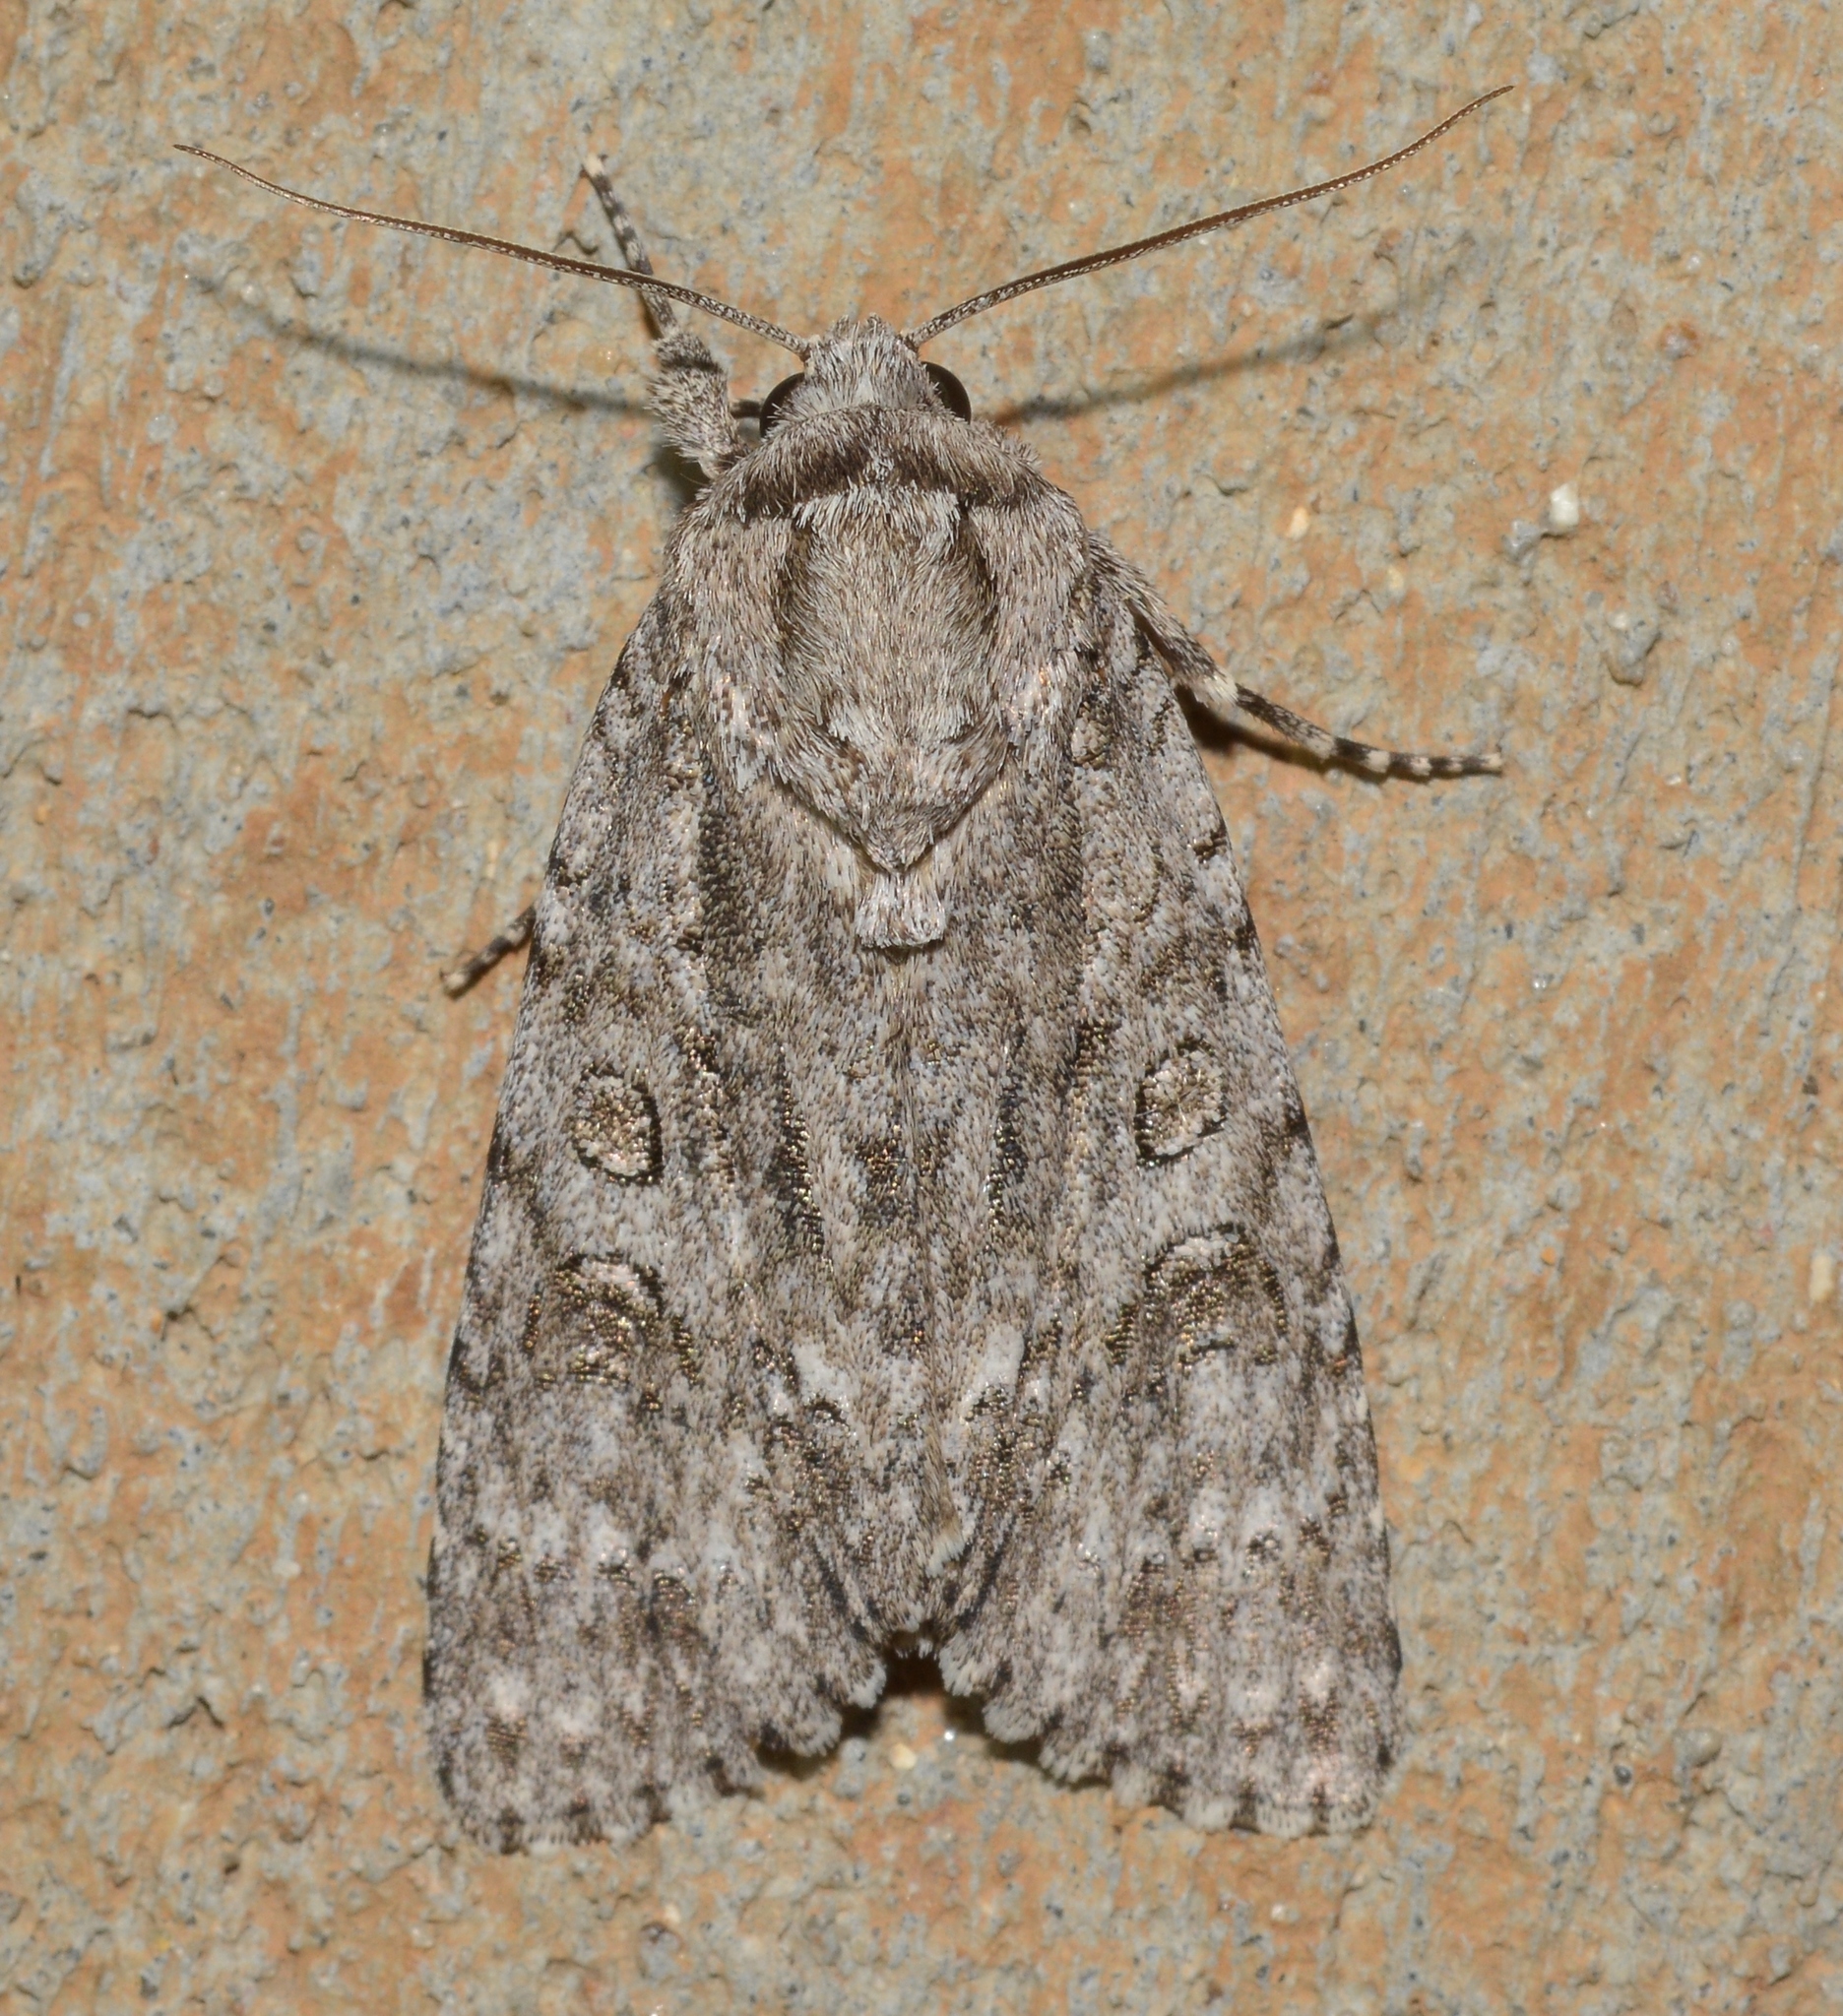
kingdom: Animalia
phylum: Arthropoda
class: Insecta
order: Lepidoptera
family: Noctuidae
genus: Acronicta
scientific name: Acronicta impleta
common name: Powdered dagger
